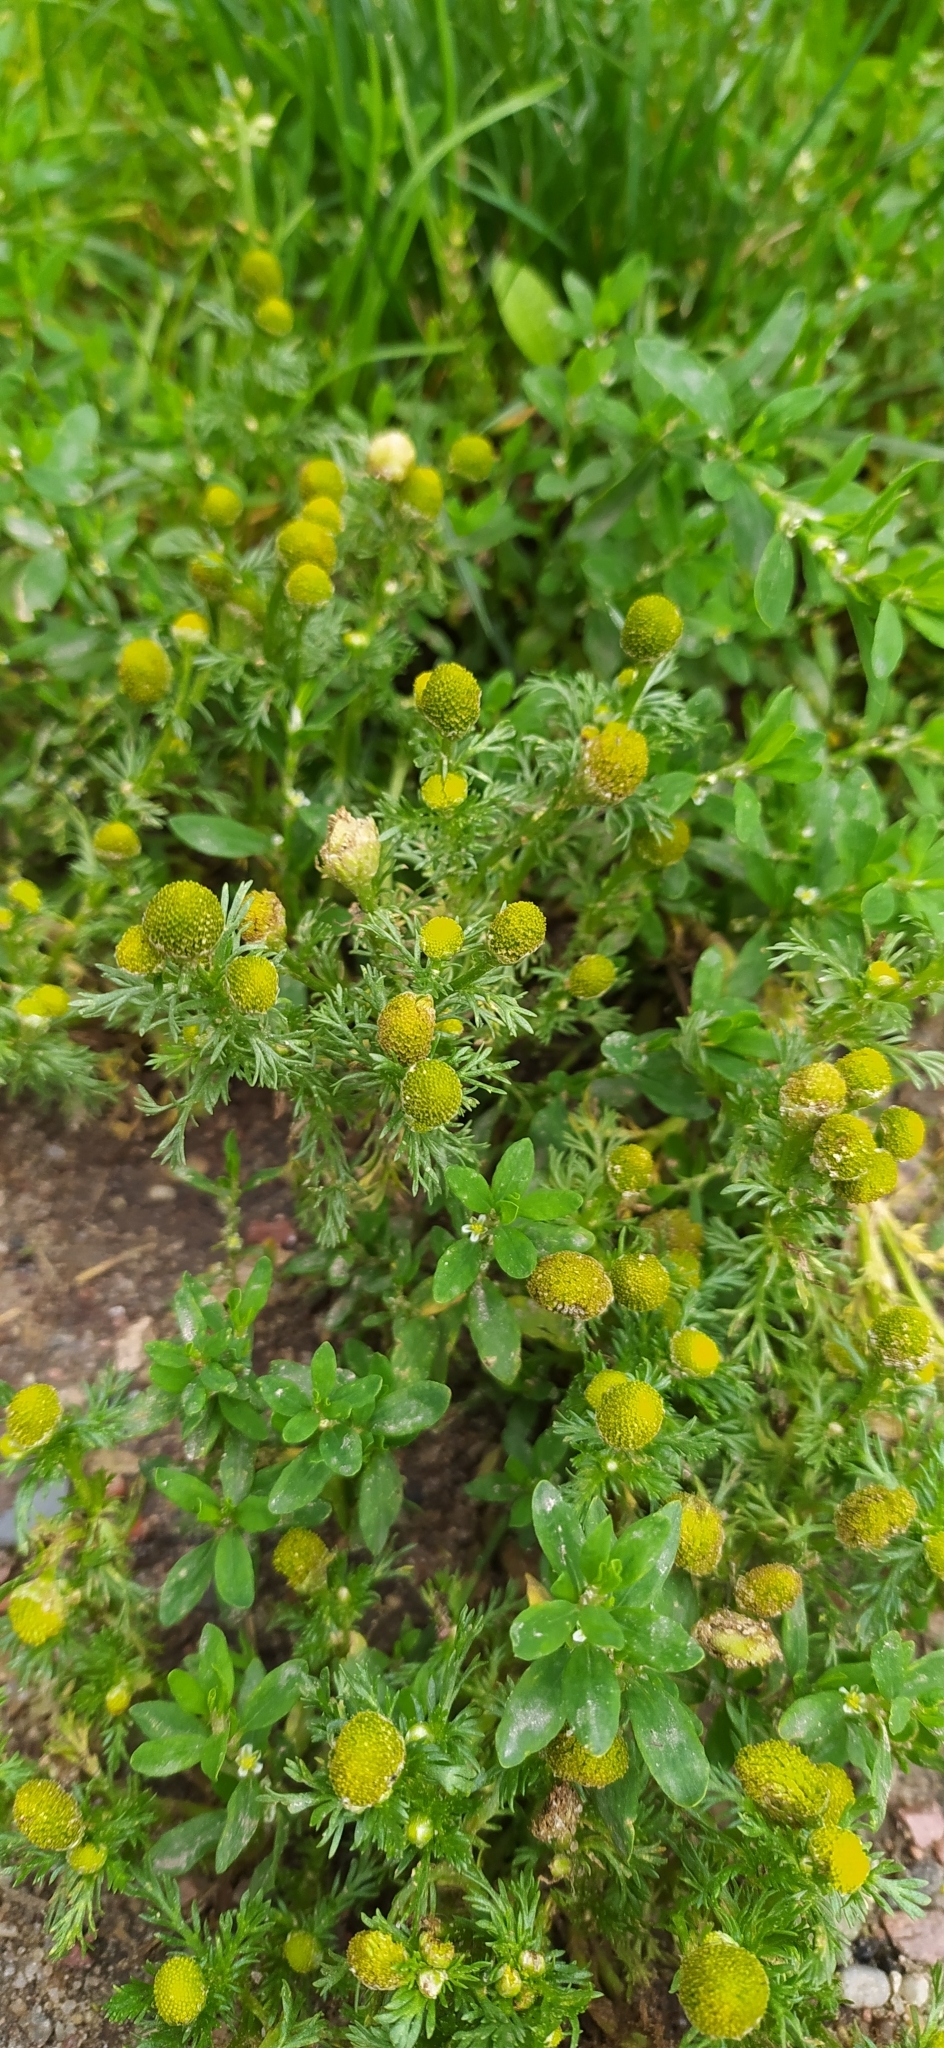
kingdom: Plantae
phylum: Tracheophyta
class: Magnoliopsida
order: Asterales
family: Asteraceae
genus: Matricaria
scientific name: Matricaria discoidea
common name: Disc mayweed
